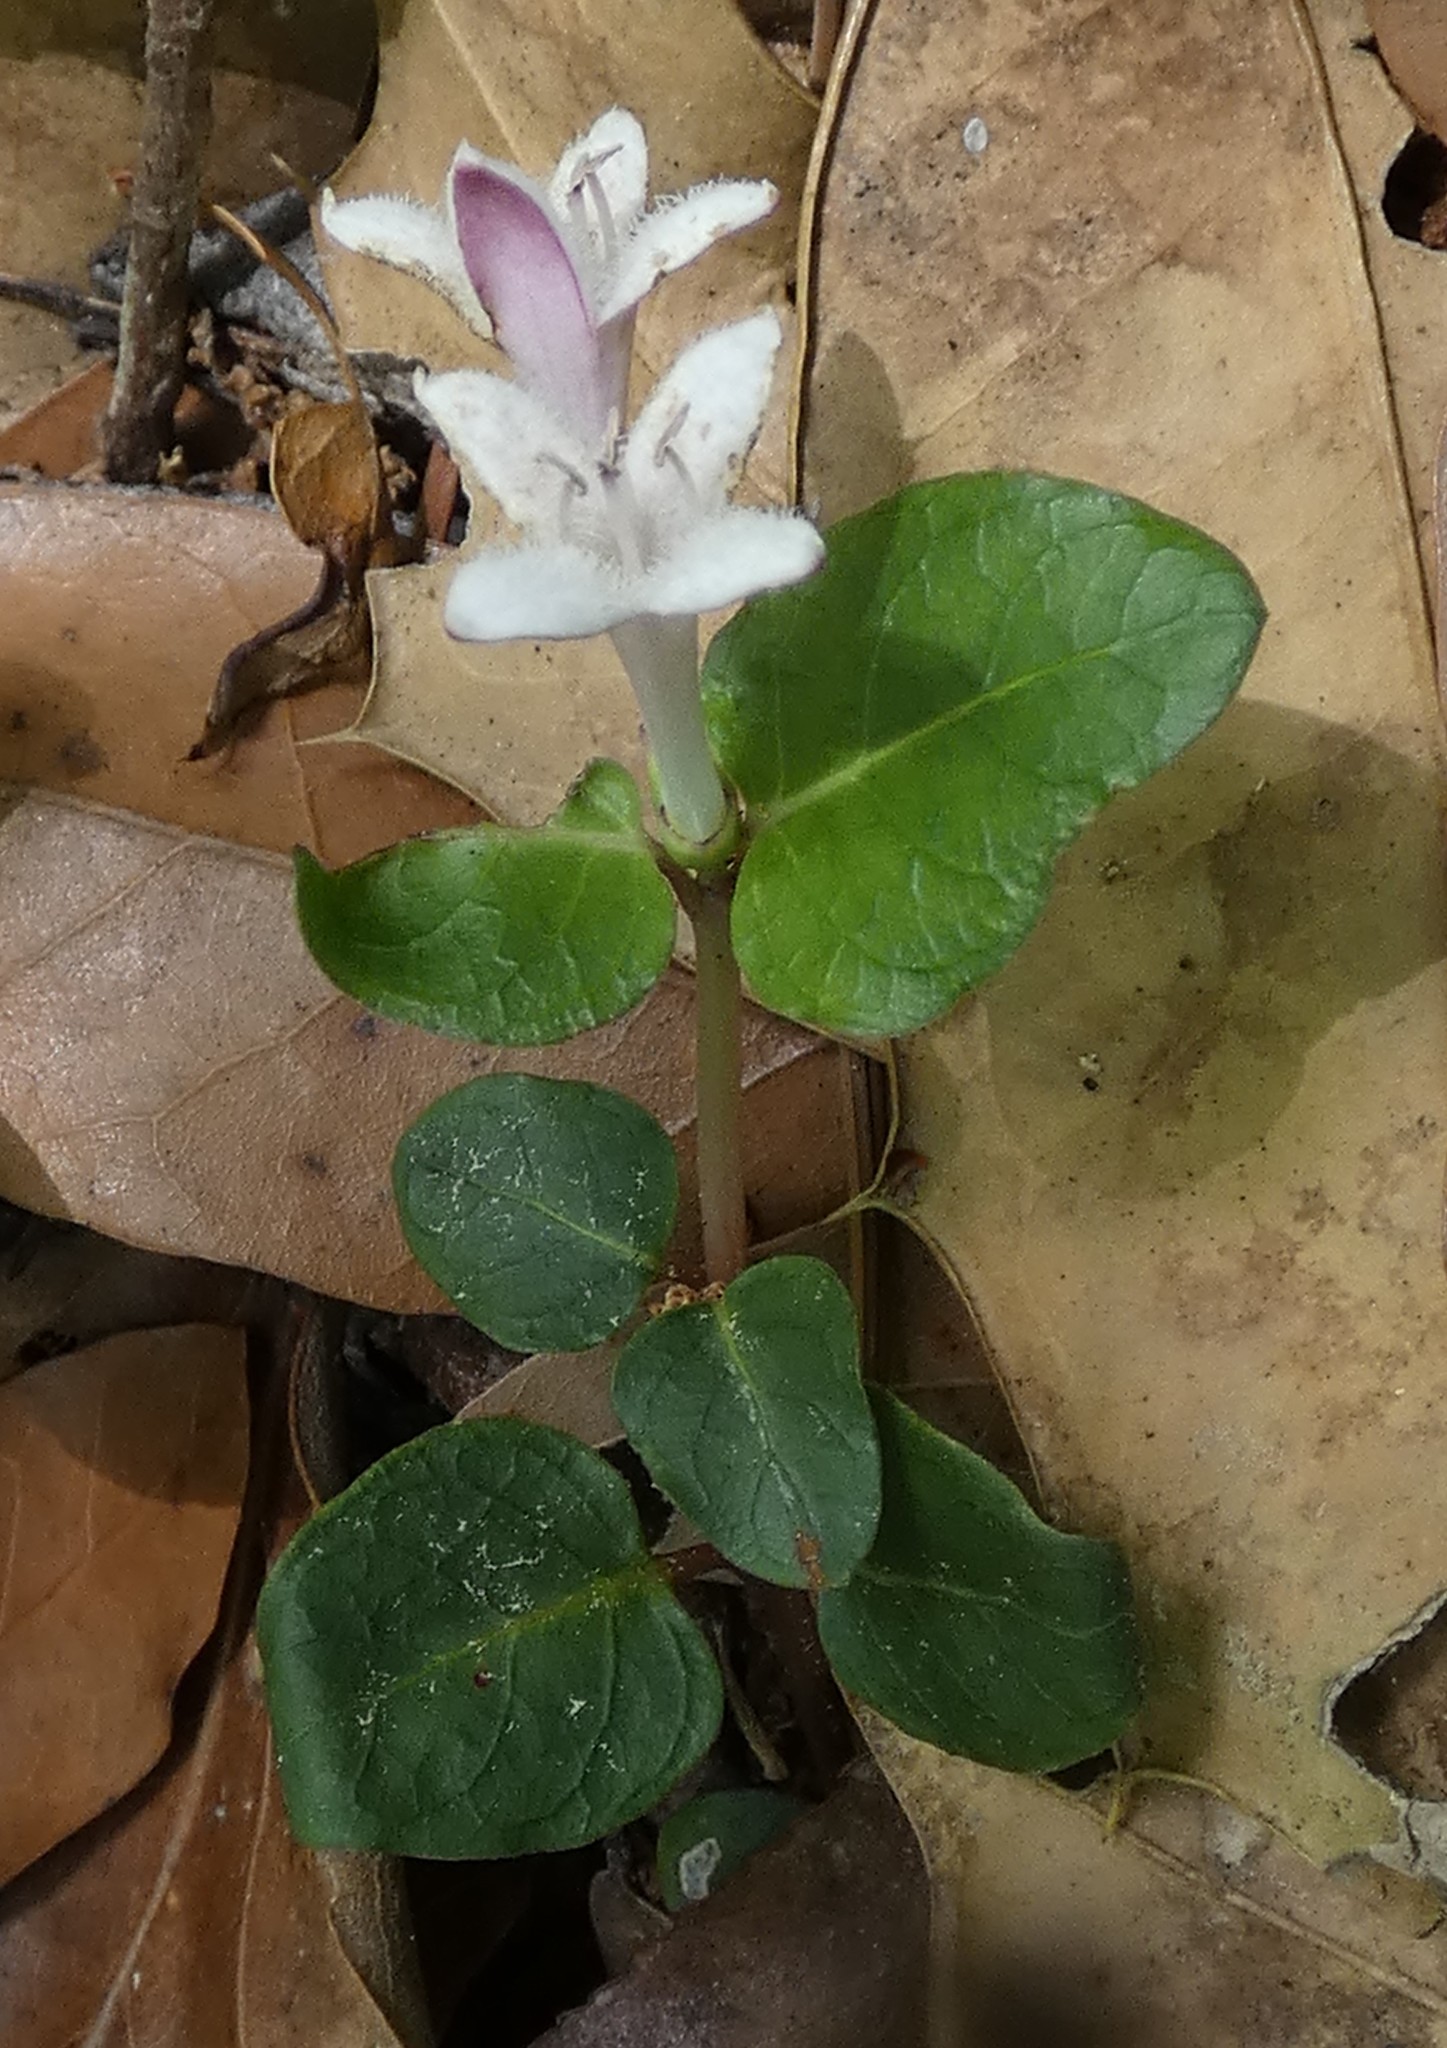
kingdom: Plantae
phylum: Tracheophyta
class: Magnoliopsida
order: Gentianales
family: Rubiaceae
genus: Mitchella
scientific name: Mitchella repens
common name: Partridge-berry
